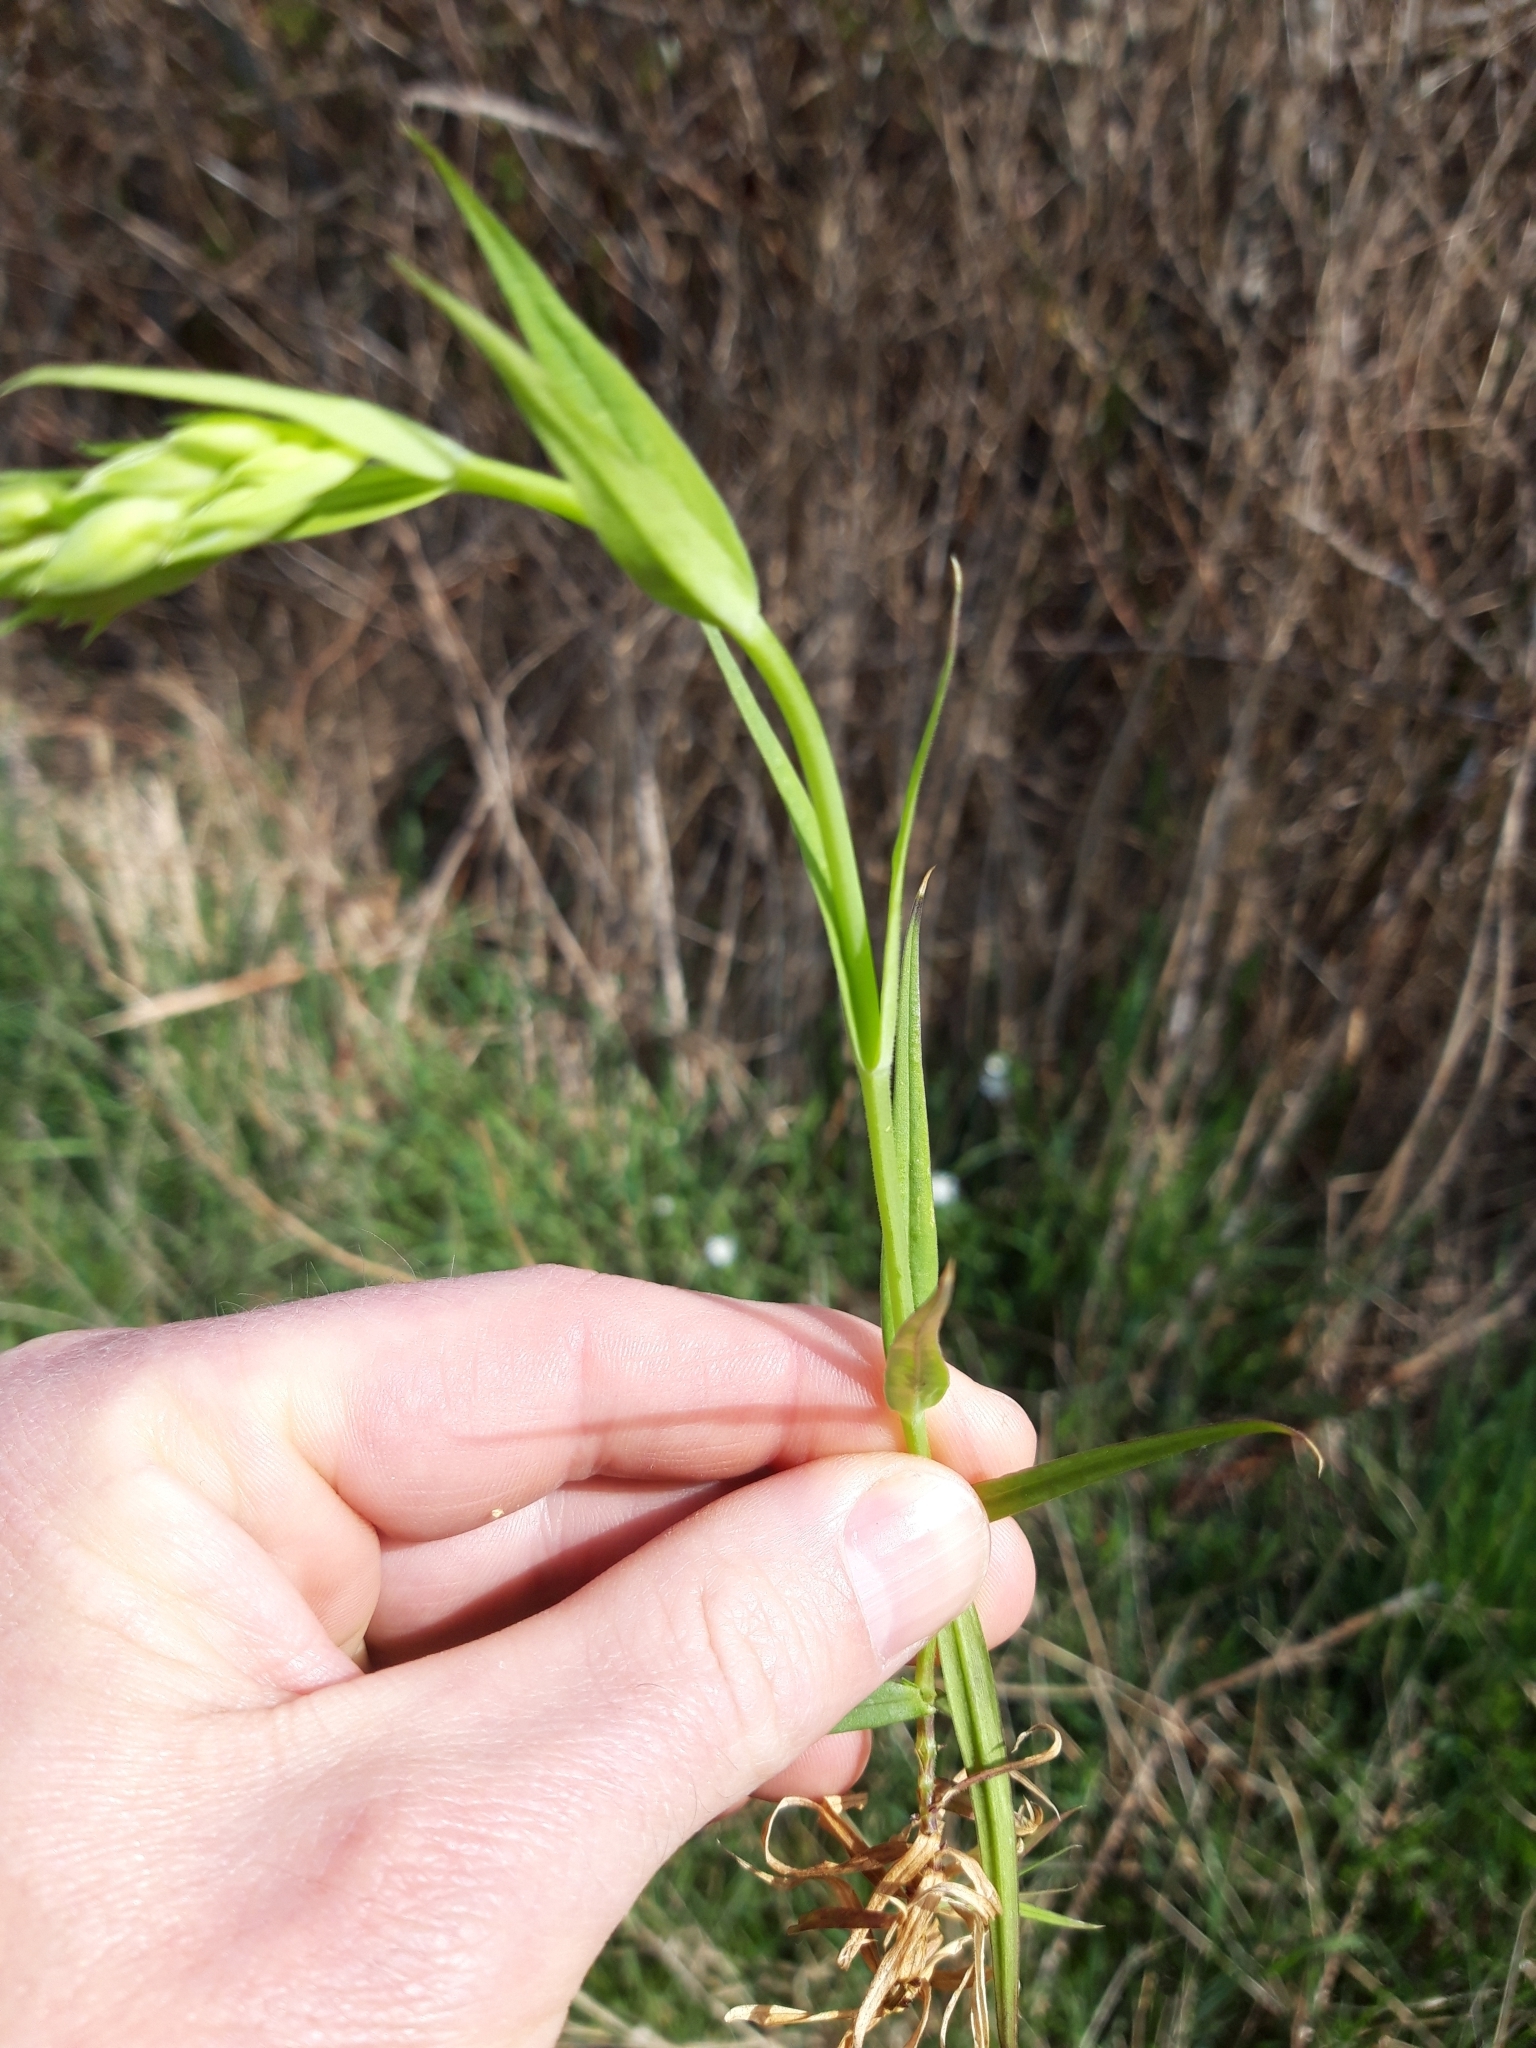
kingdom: Plantae
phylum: Tracheophyta
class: Magnoliopsida
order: Caryophyllales
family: Caryophyllaceae
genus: Rabelera
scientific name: Rabelera holostea
